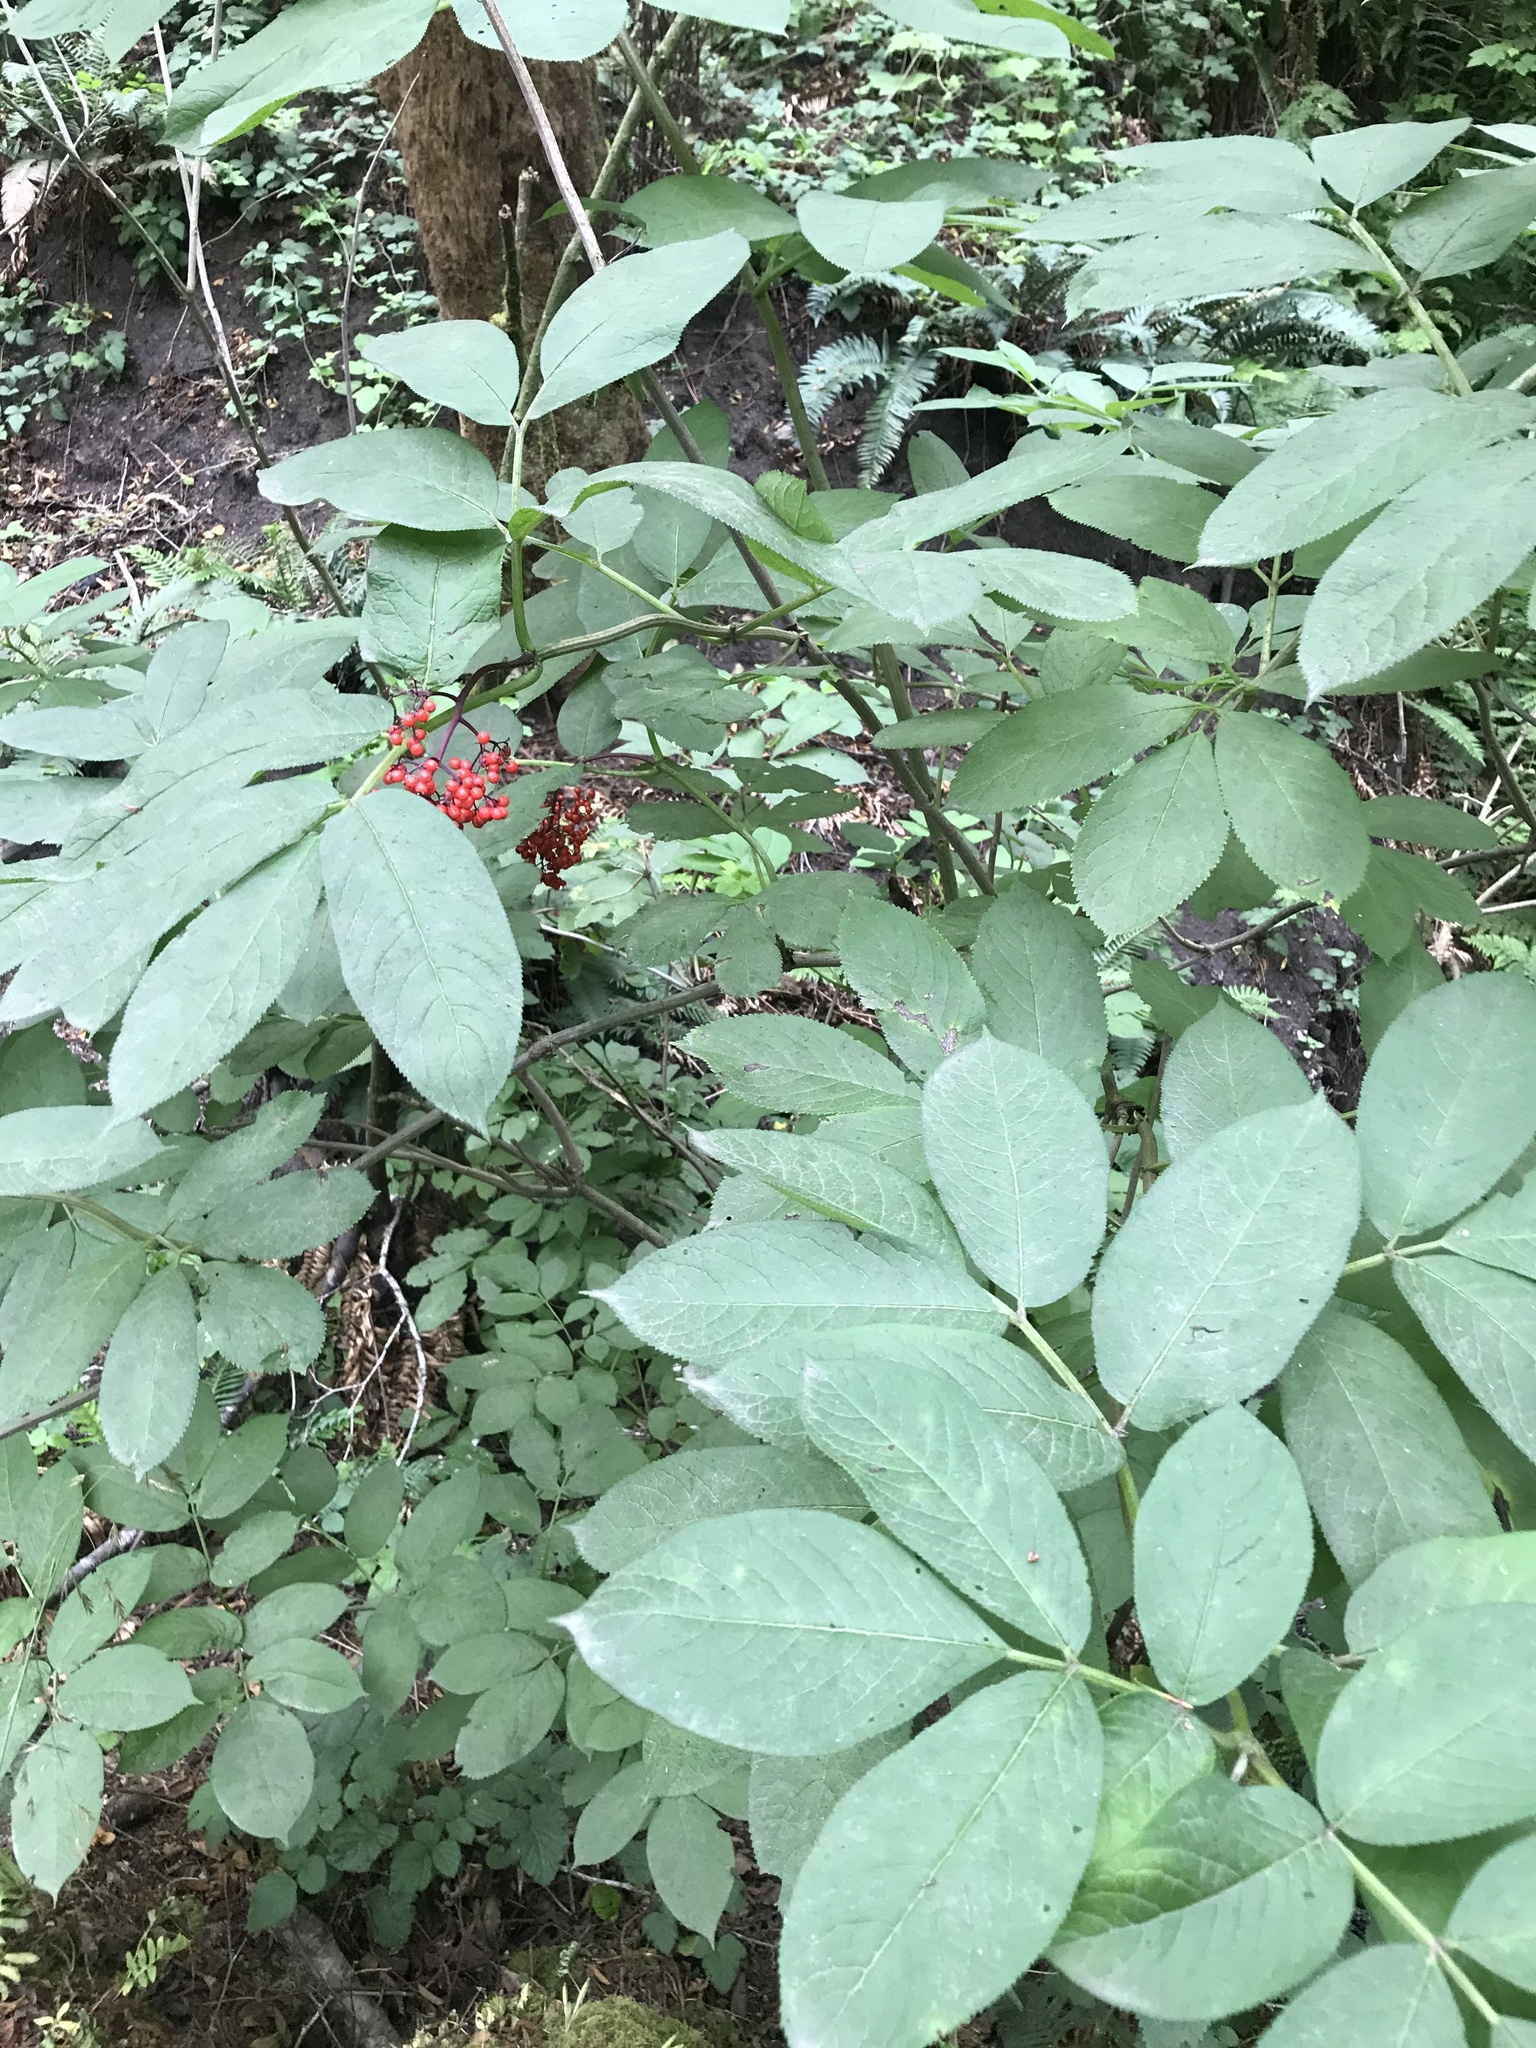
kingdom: Plantae
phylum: Tracheophyta
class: Magnoliopsida
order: Dipsacales
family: Viburnaceae
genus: Sambucus
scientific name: Sambucus racemosa
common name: Red-berried elder
